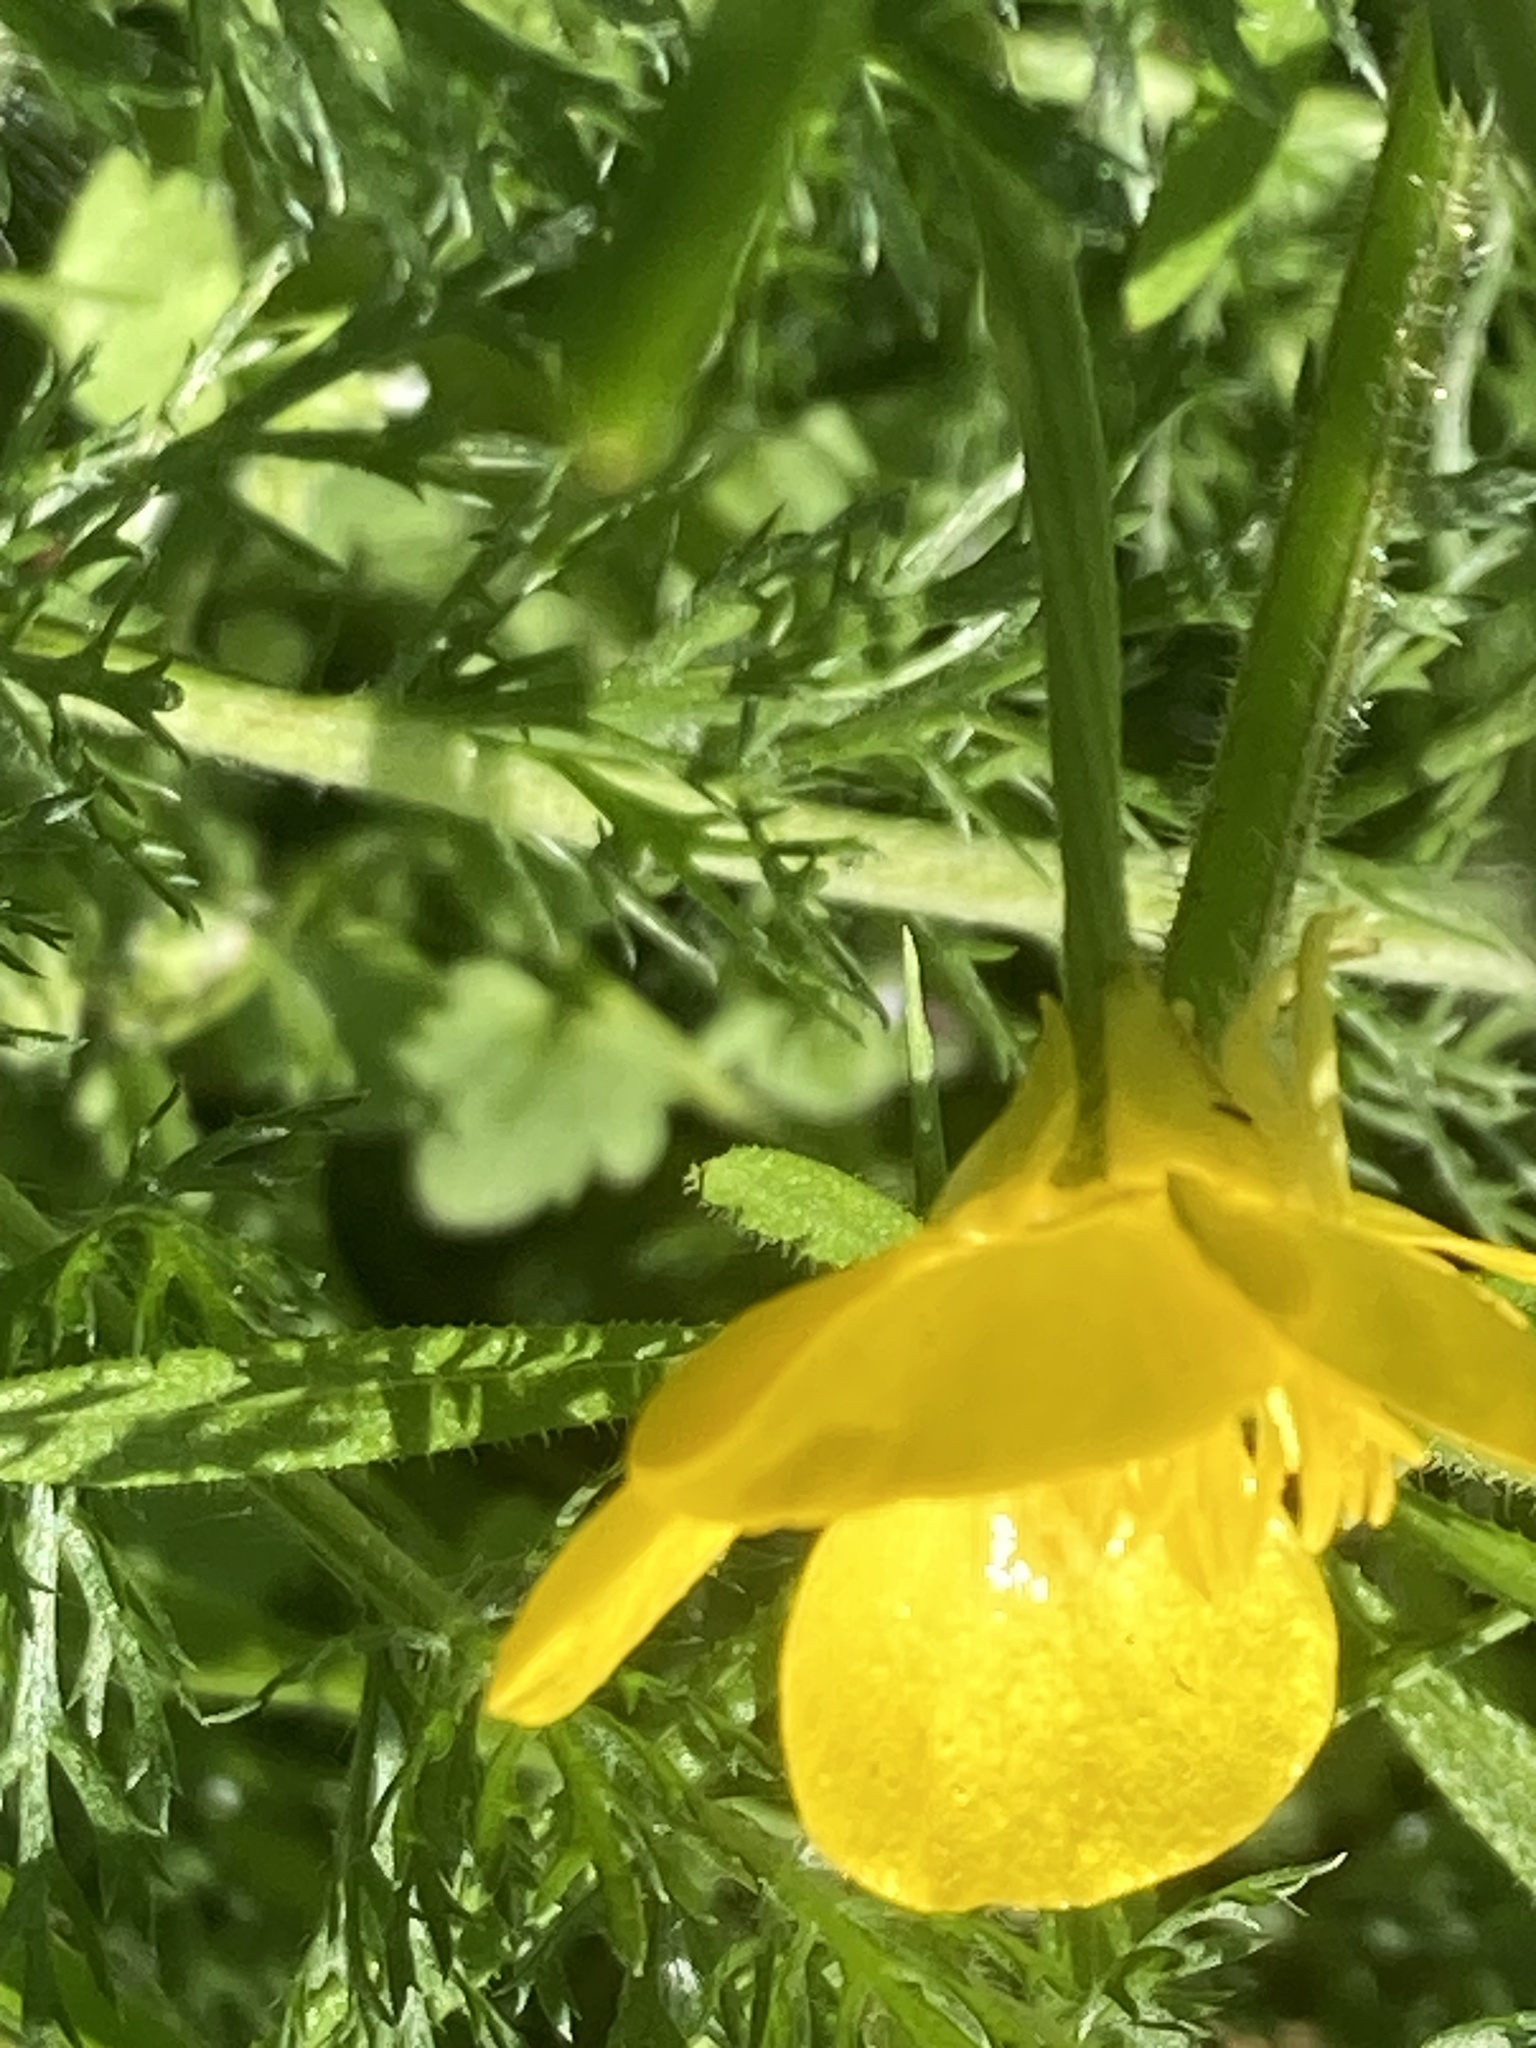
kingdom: Plantae
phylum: Tracheophyta
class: Magnoliopsida
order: Ranunculales
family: Ranunculaceae
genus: Ranunculus
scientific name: Ranunculus bulbosus
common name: Bulbous buttercup
